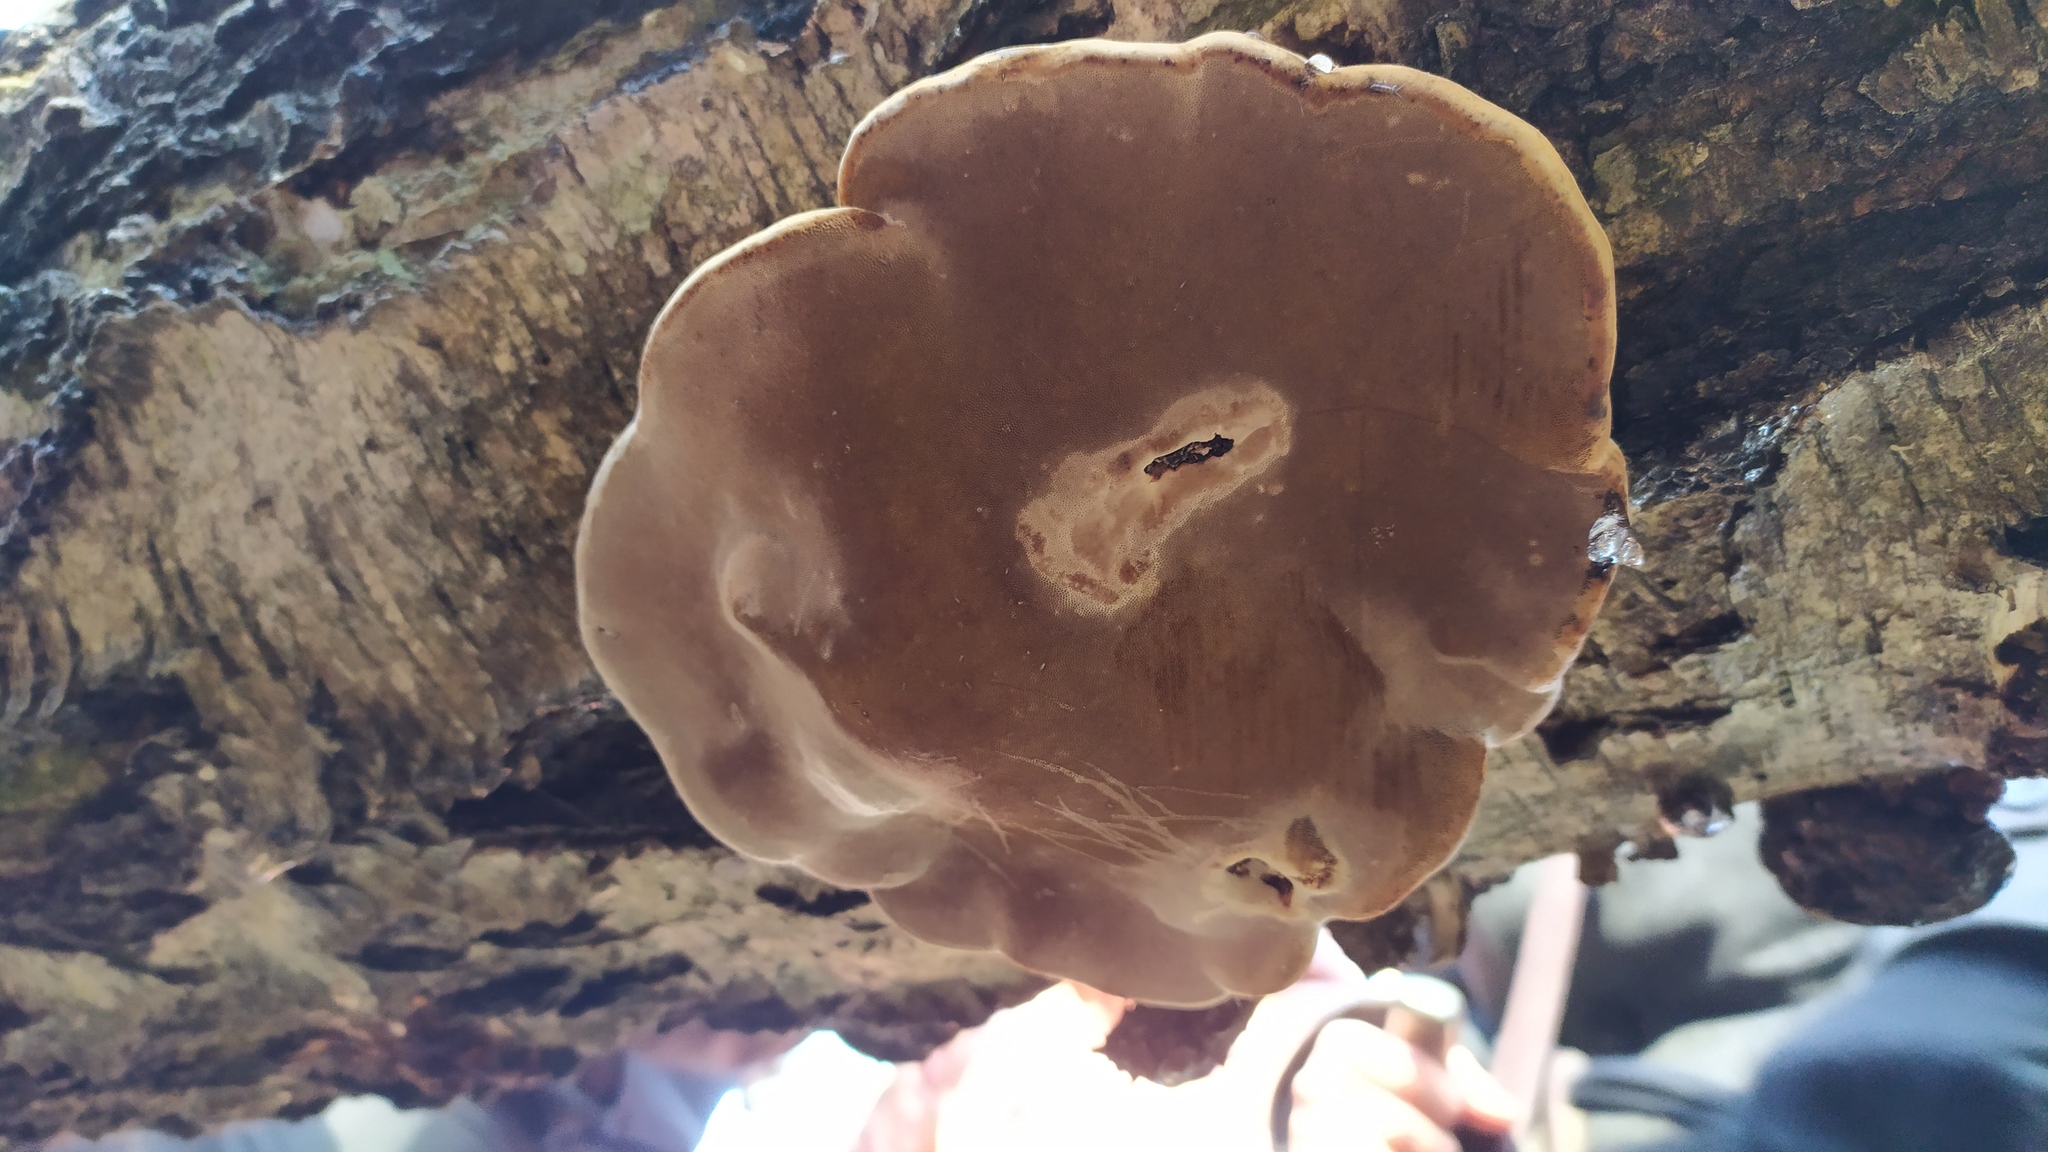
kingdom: Fungi
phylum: Basidiomycota
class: Agaricomycetes
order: Polyporales
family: Polyporaceae
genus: Fomes
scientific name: Fomes fomentarius
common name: Hoof fungus
